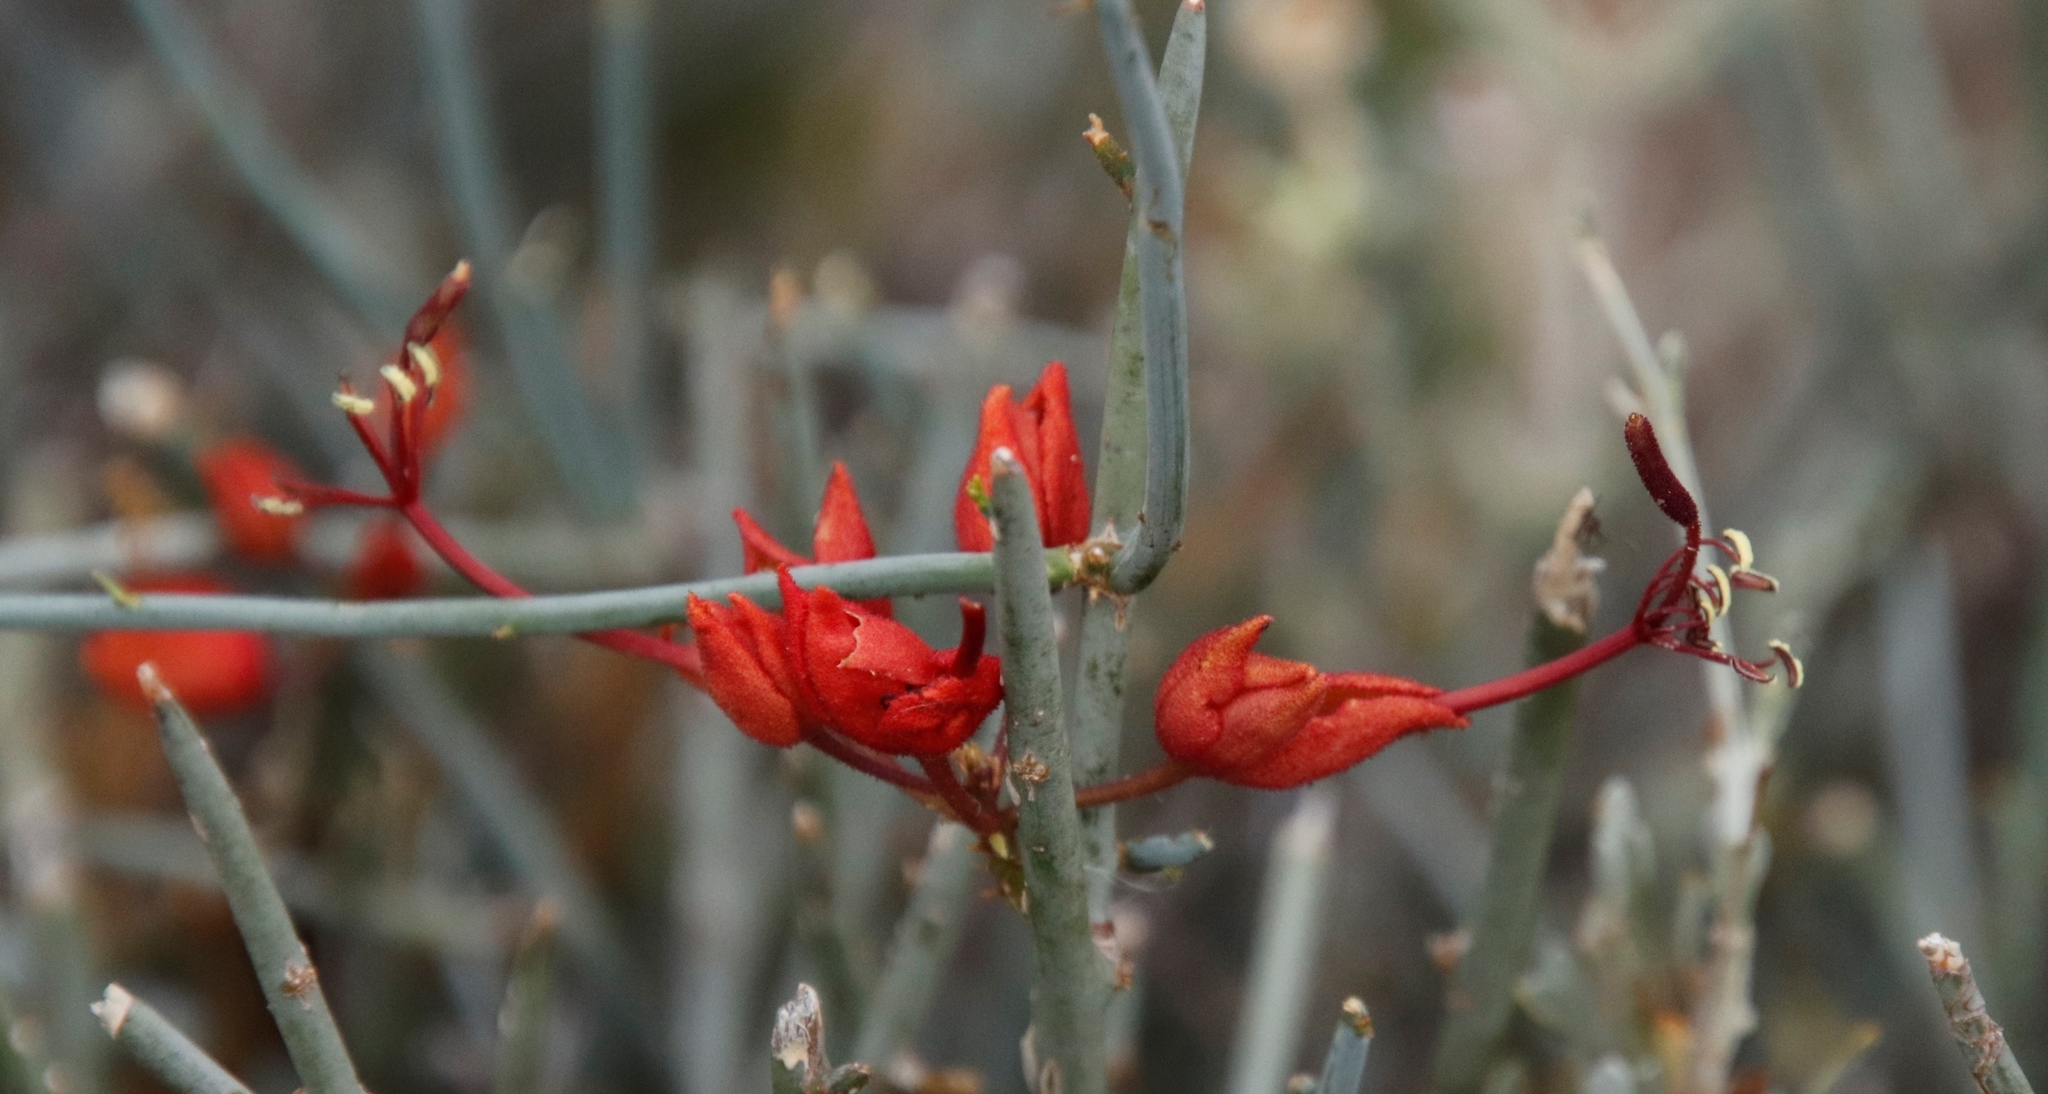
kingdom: Plantae
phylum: Tracheophyta
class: Magnoliopsida
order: Brassicales
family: Capparaceae
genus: Cadaba
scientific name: Cadaba aphylla
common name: Black storm
